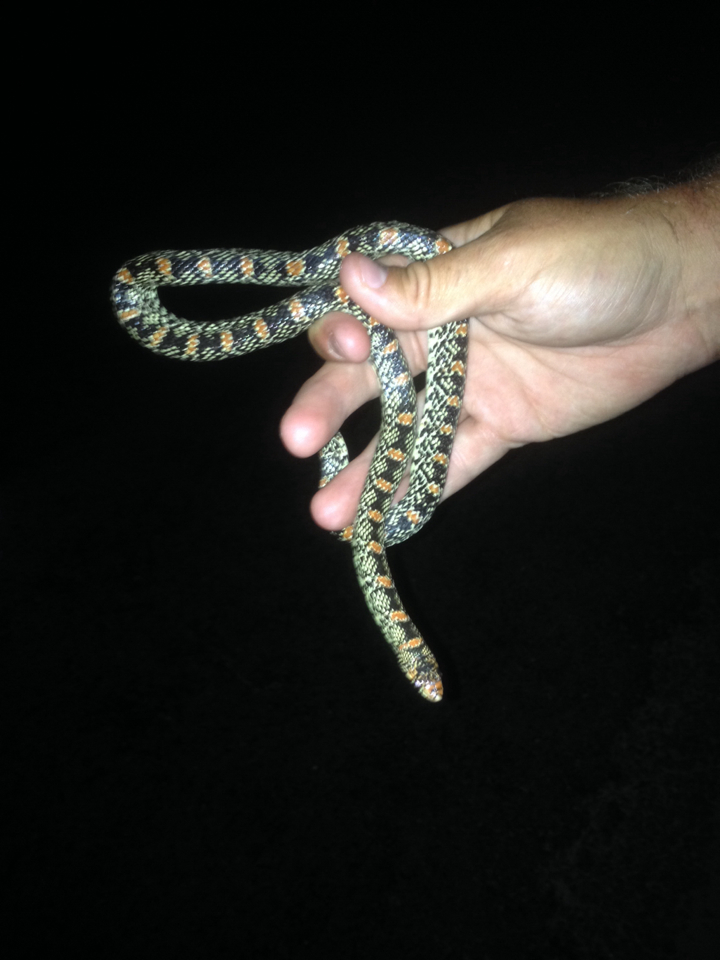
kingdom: Animalia
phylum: Chordata
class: Squamata
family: Colubridae
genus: Rhinocheilus
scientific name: Rhinocheilus lecontei
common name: Longnose snake
